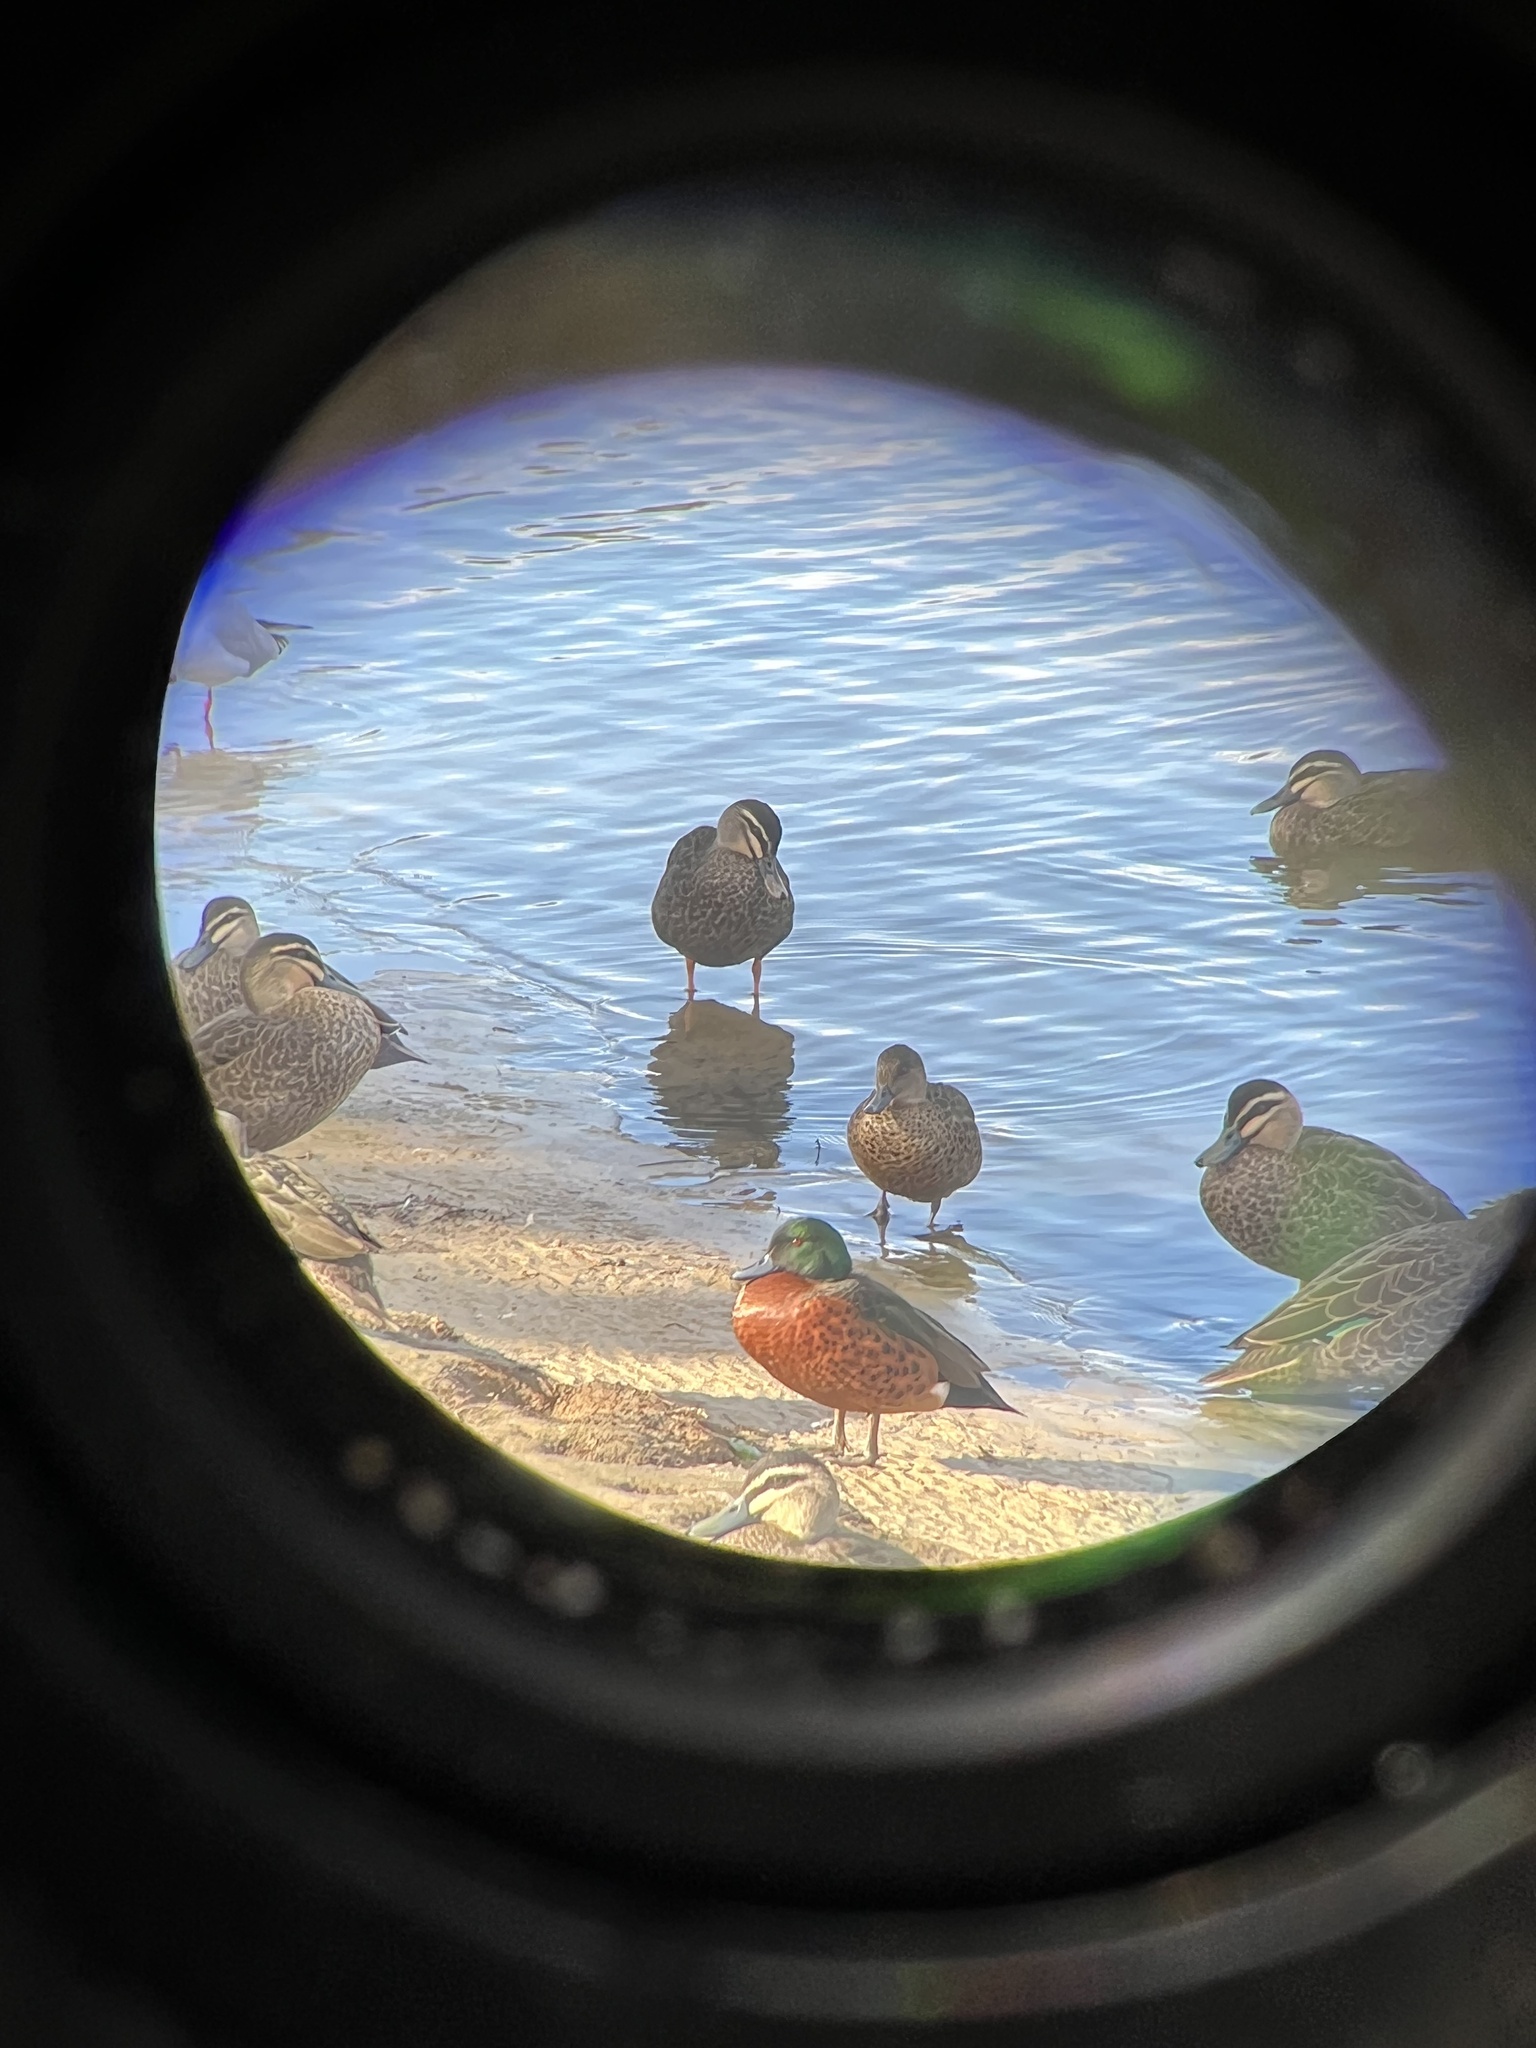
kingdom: Animalia
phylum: Chordata
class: Aves
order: Anseriformes
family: Anatidae
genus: Anas
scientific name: Anas
